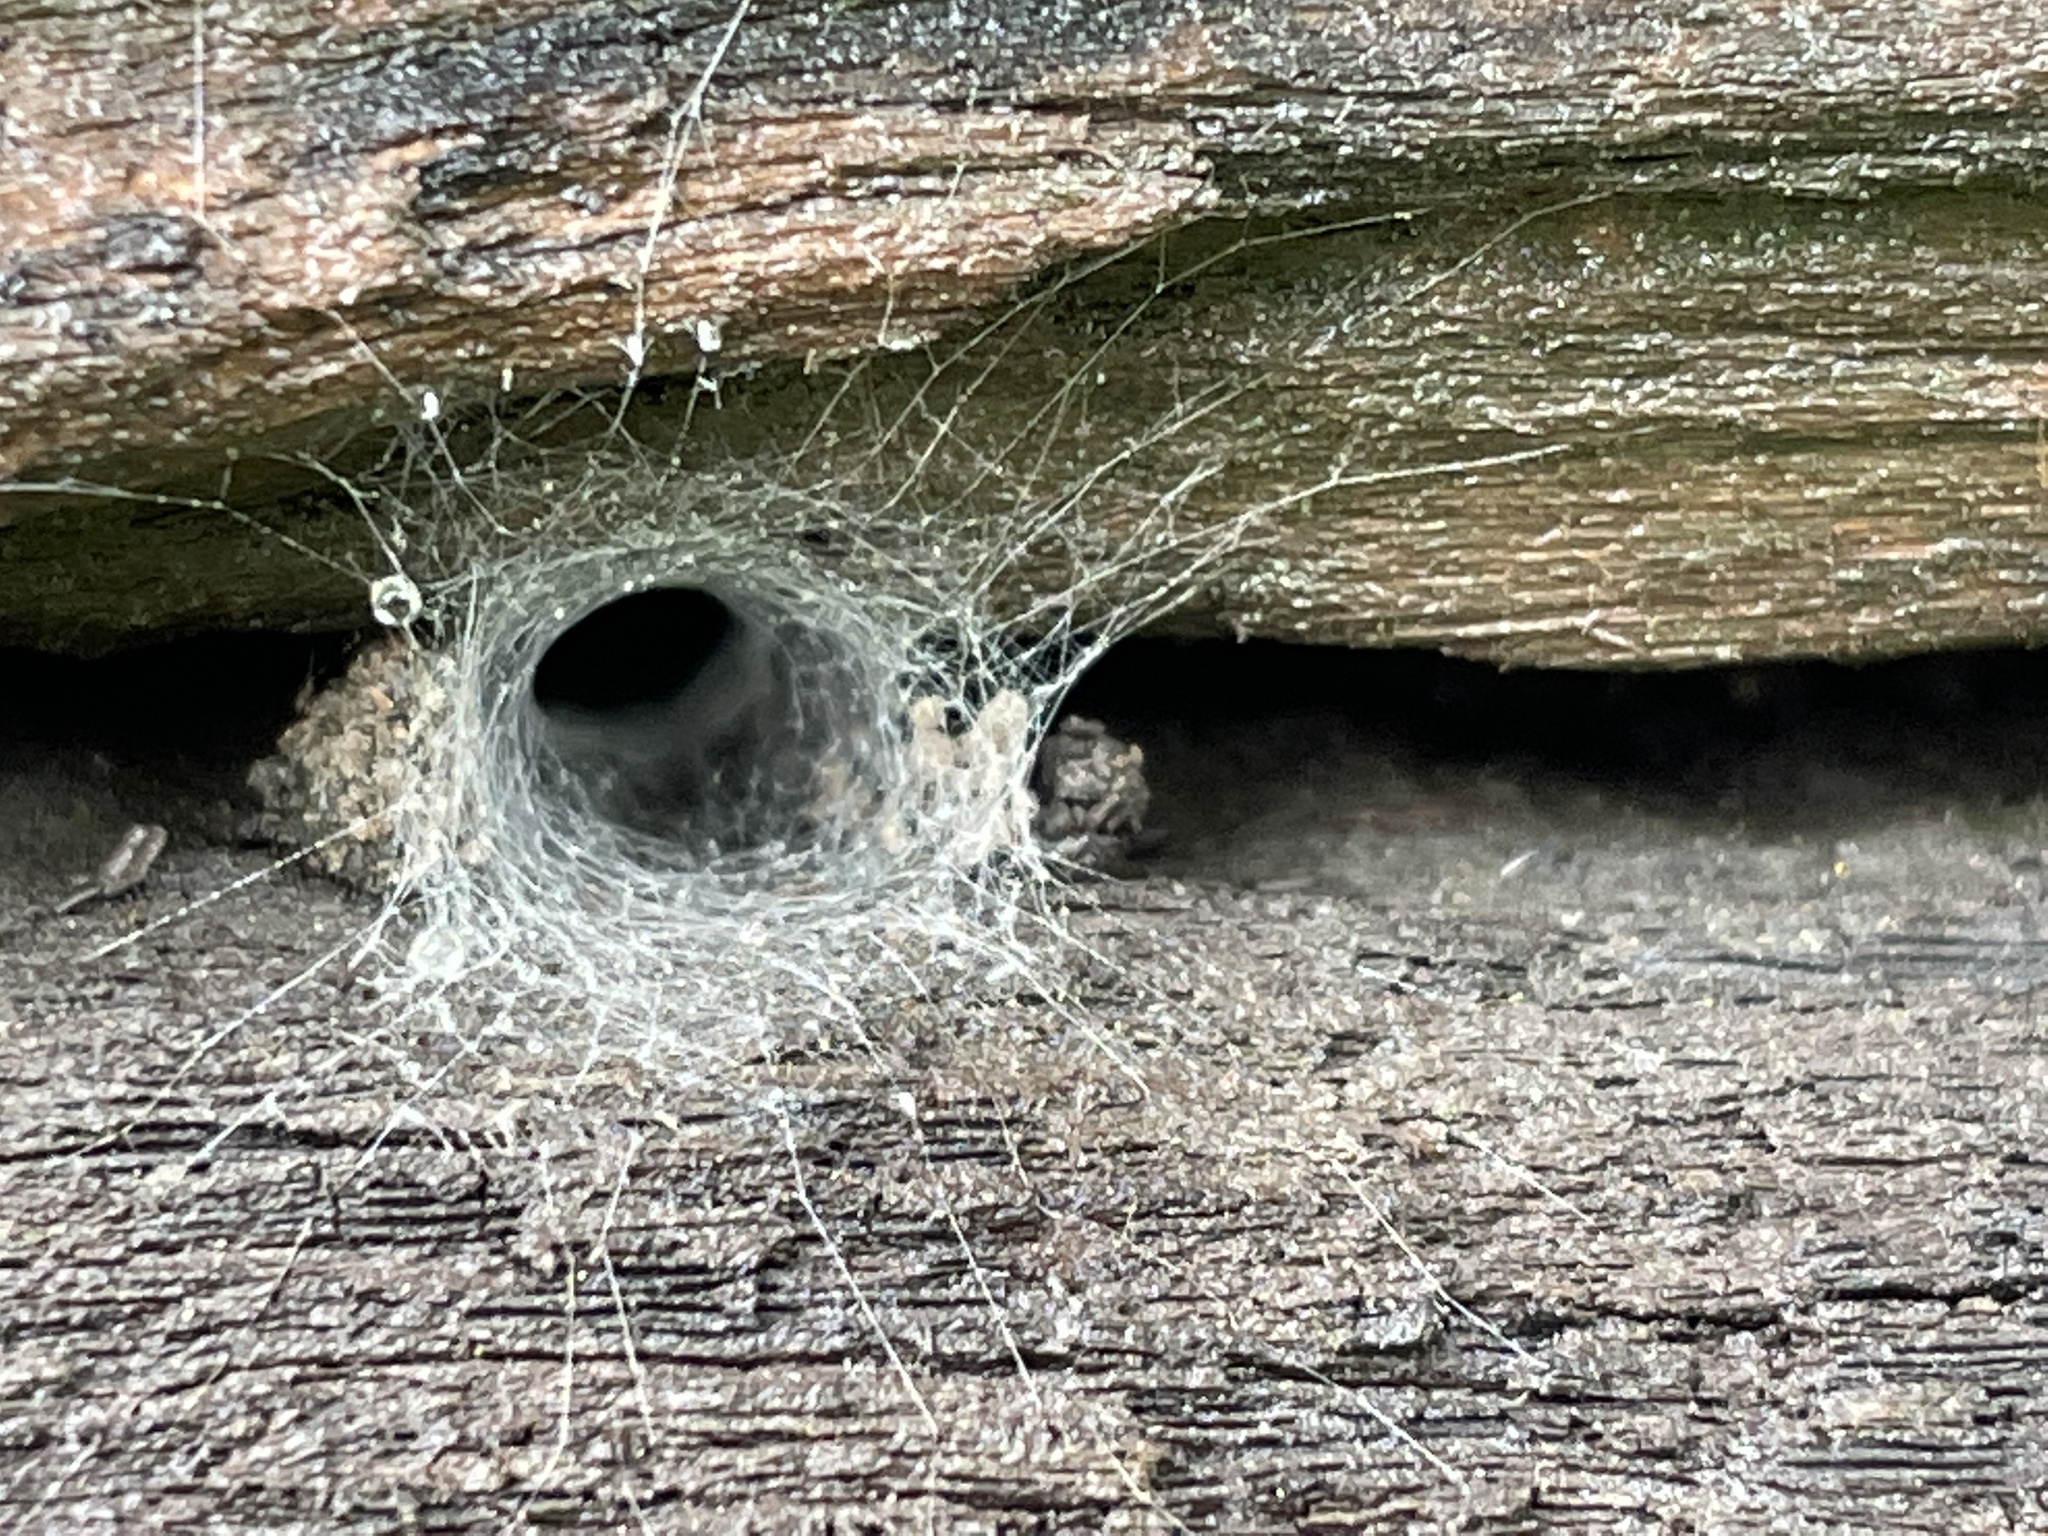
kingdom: Animalia
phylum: Arthropoda
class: Arachnida
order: Araneae
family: Segestriidae
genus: Ariadna
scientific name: Ariadna bicolor
